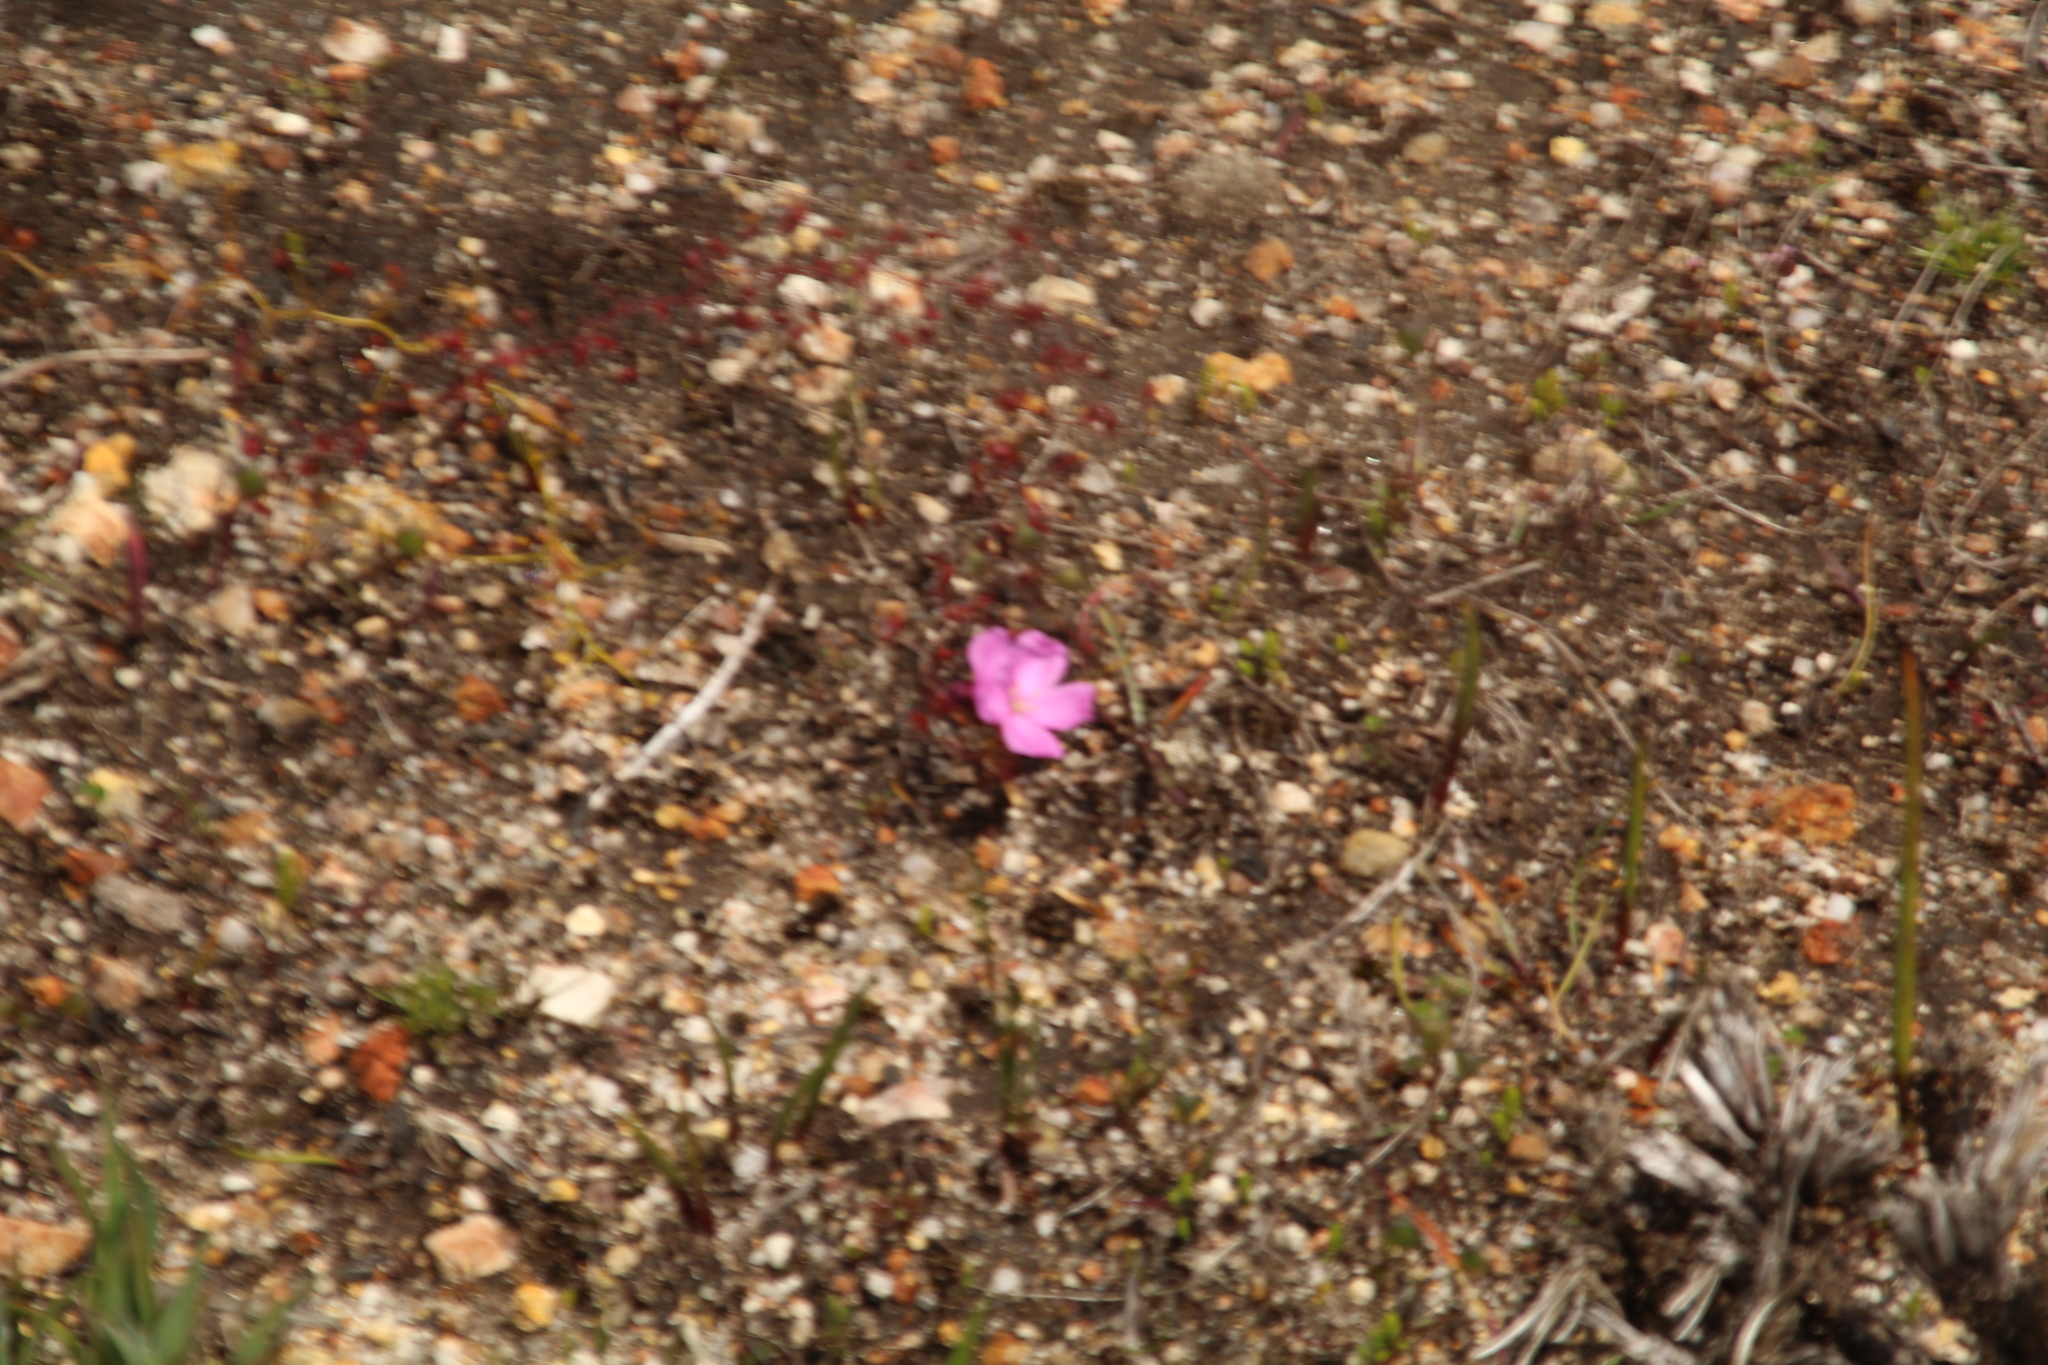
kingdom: Plantae
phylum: Tracheophyta
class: Magnoliopsida
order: Caryophyllales
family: Droseraceae
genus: Drosera
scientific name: Drosera
